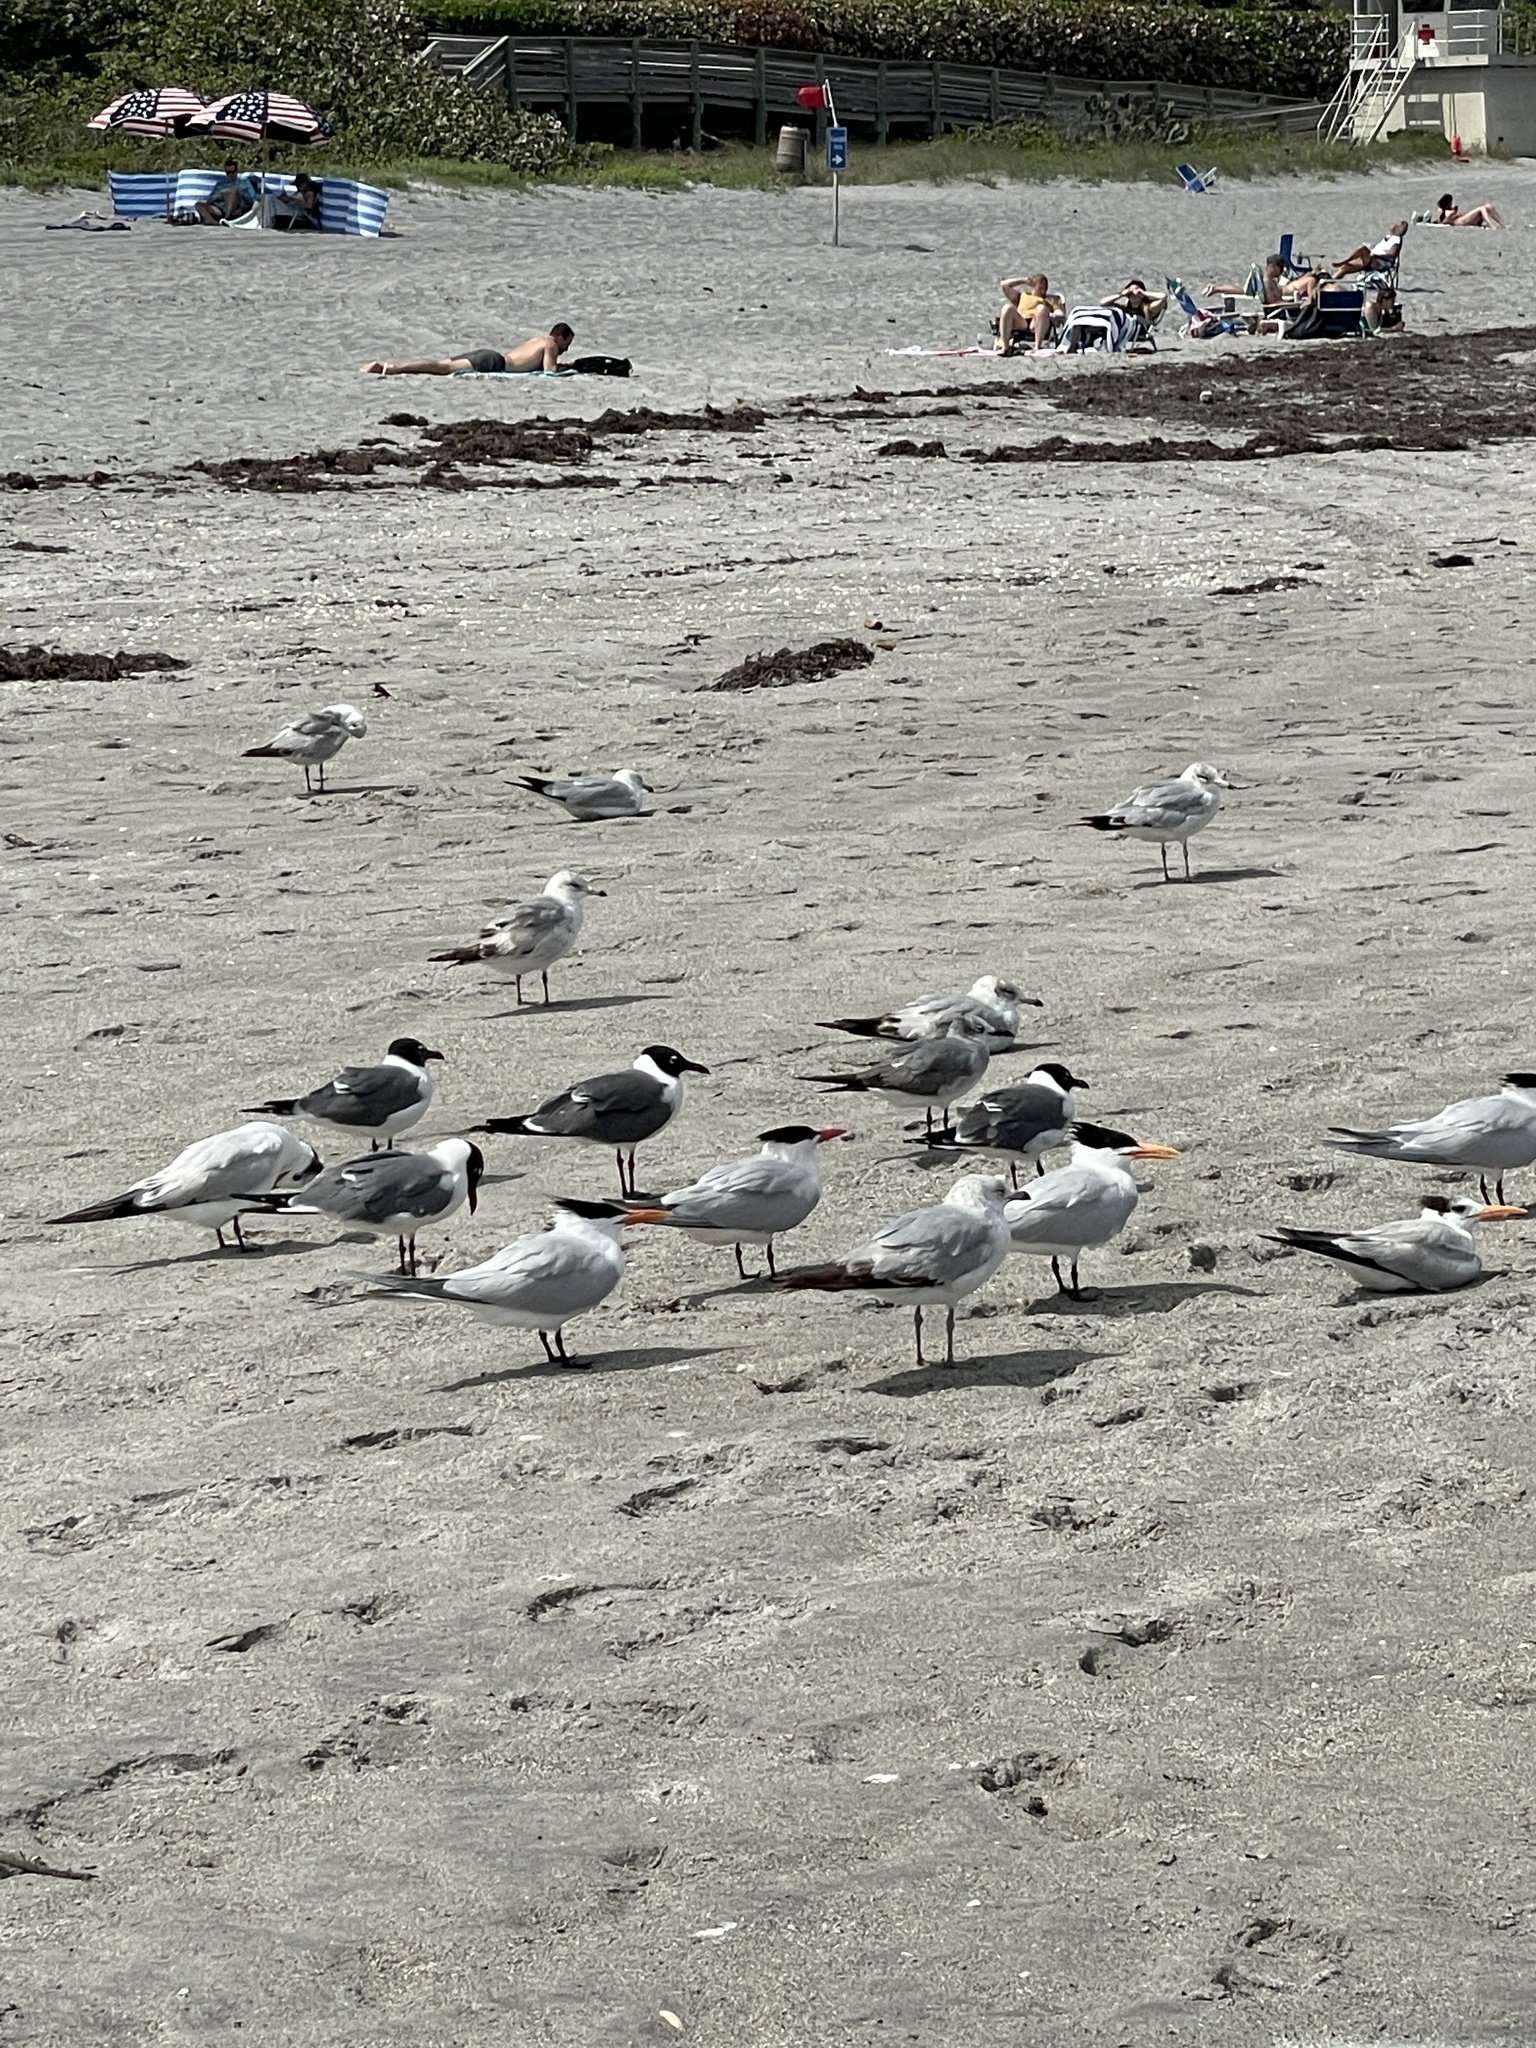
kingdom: Animalia
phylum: Chordata
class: Aves
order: Charadriiformes
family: Laridae
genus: Leucophaeus
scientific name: Leucophaeus atricilla
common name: Laughing gull
